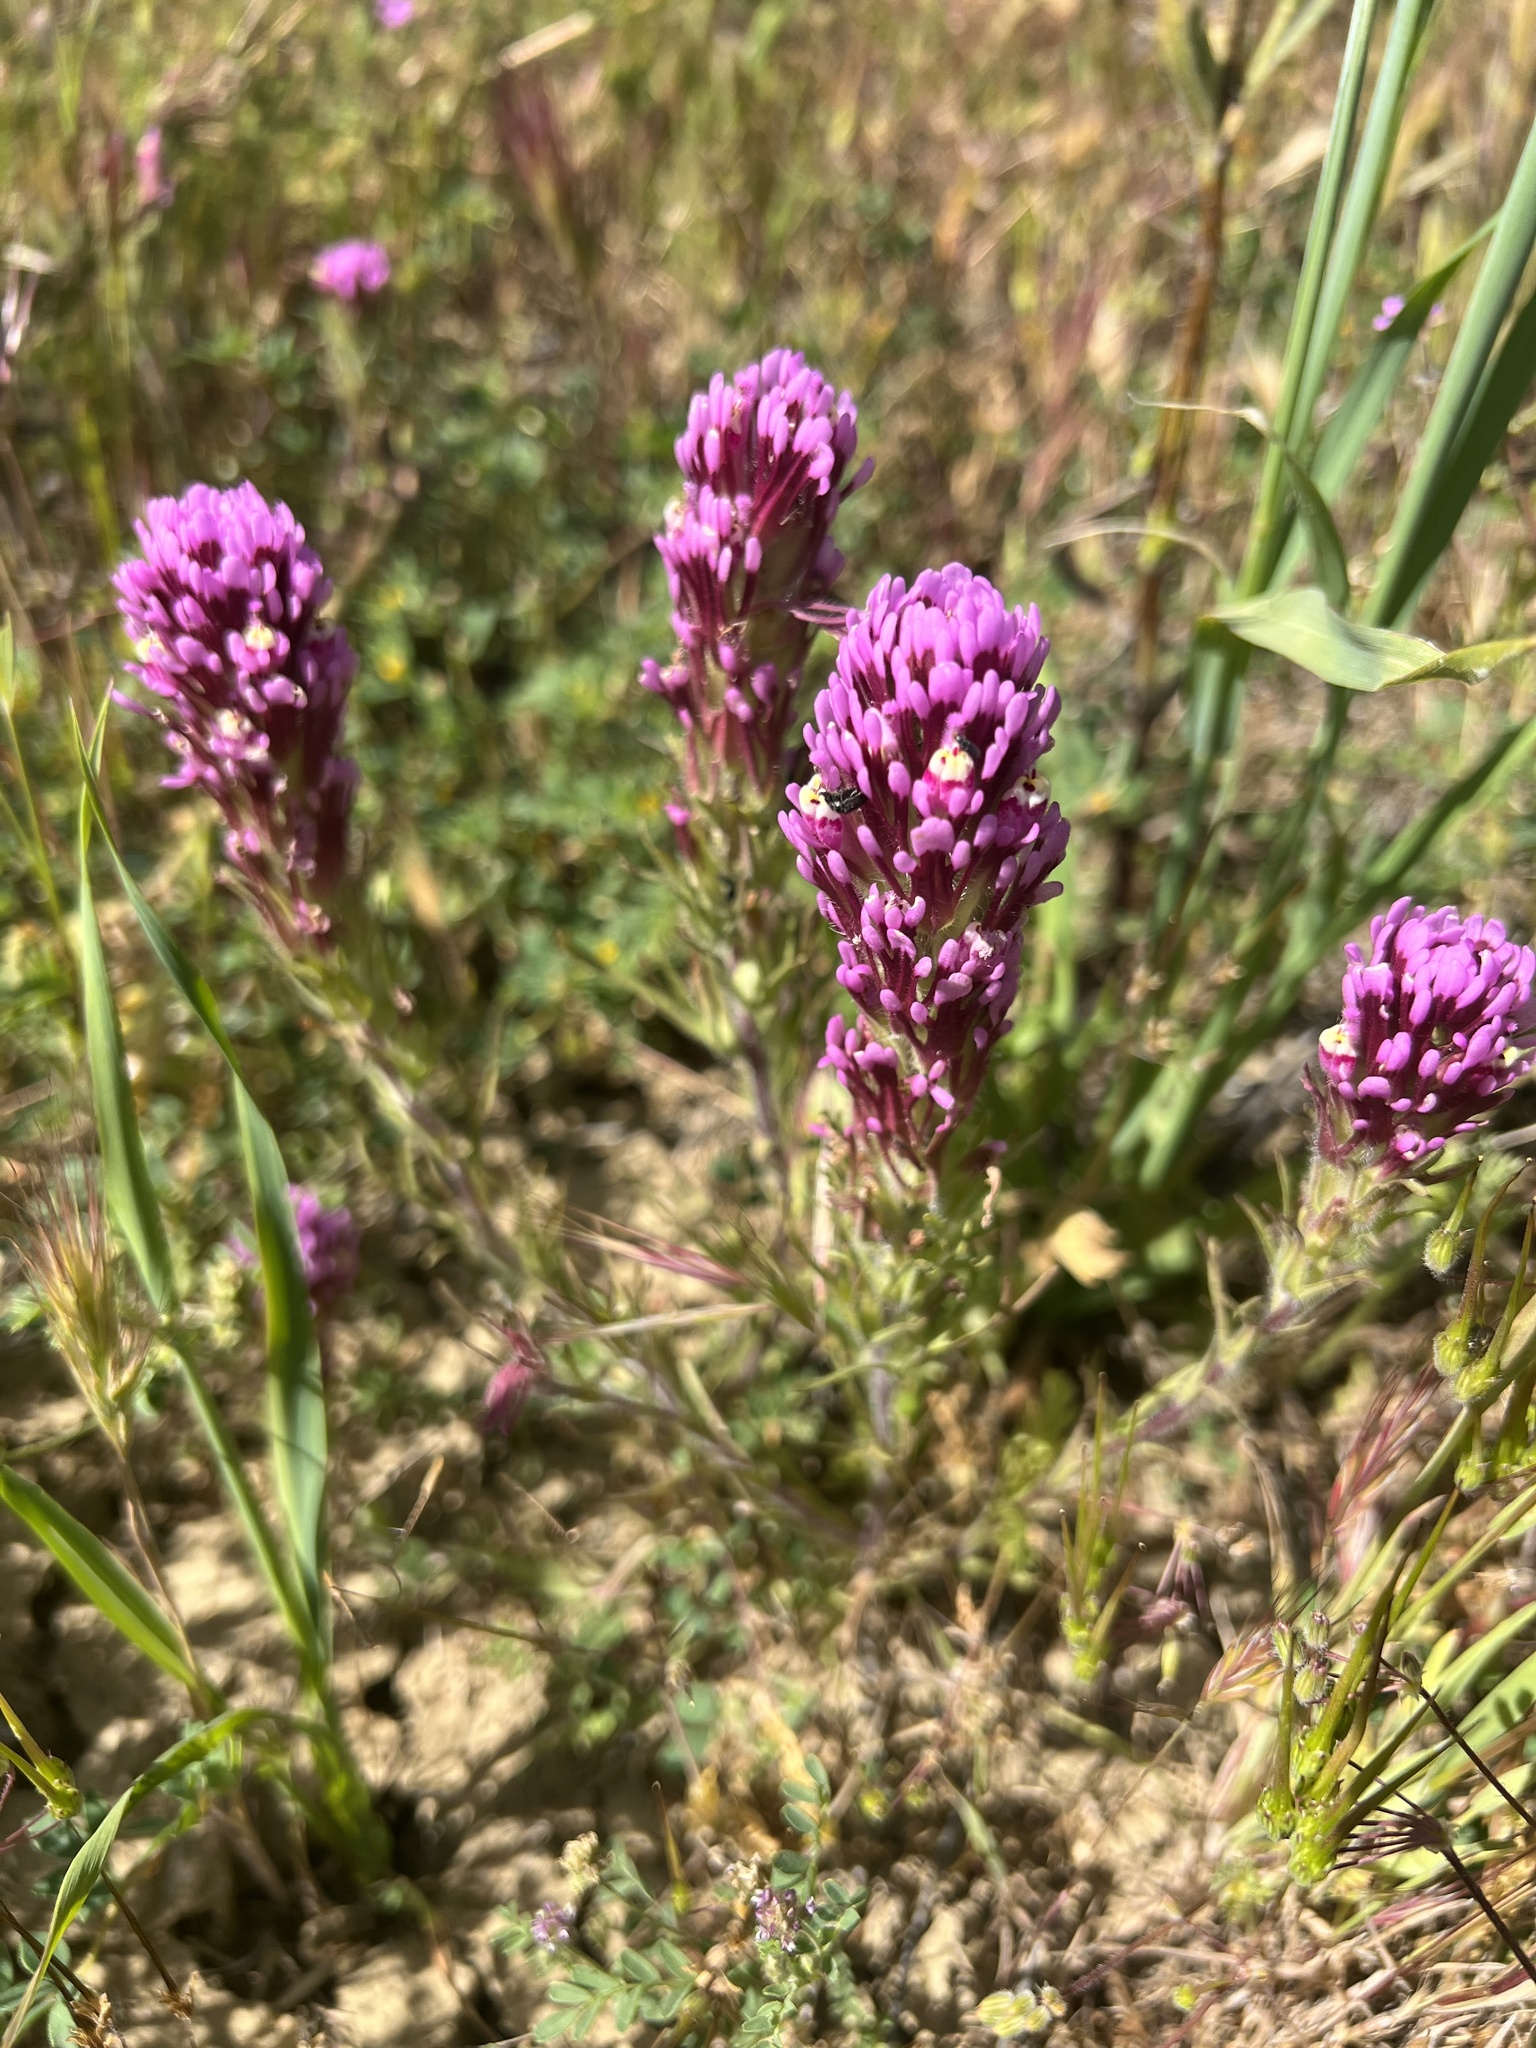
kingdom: Plantae
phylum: Tracheophyta
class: Magnoliopsida
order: Lamiales
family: Orobanchaceae
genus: Castilleja
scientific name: Castilleja exserta
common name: Purple owl-clover
